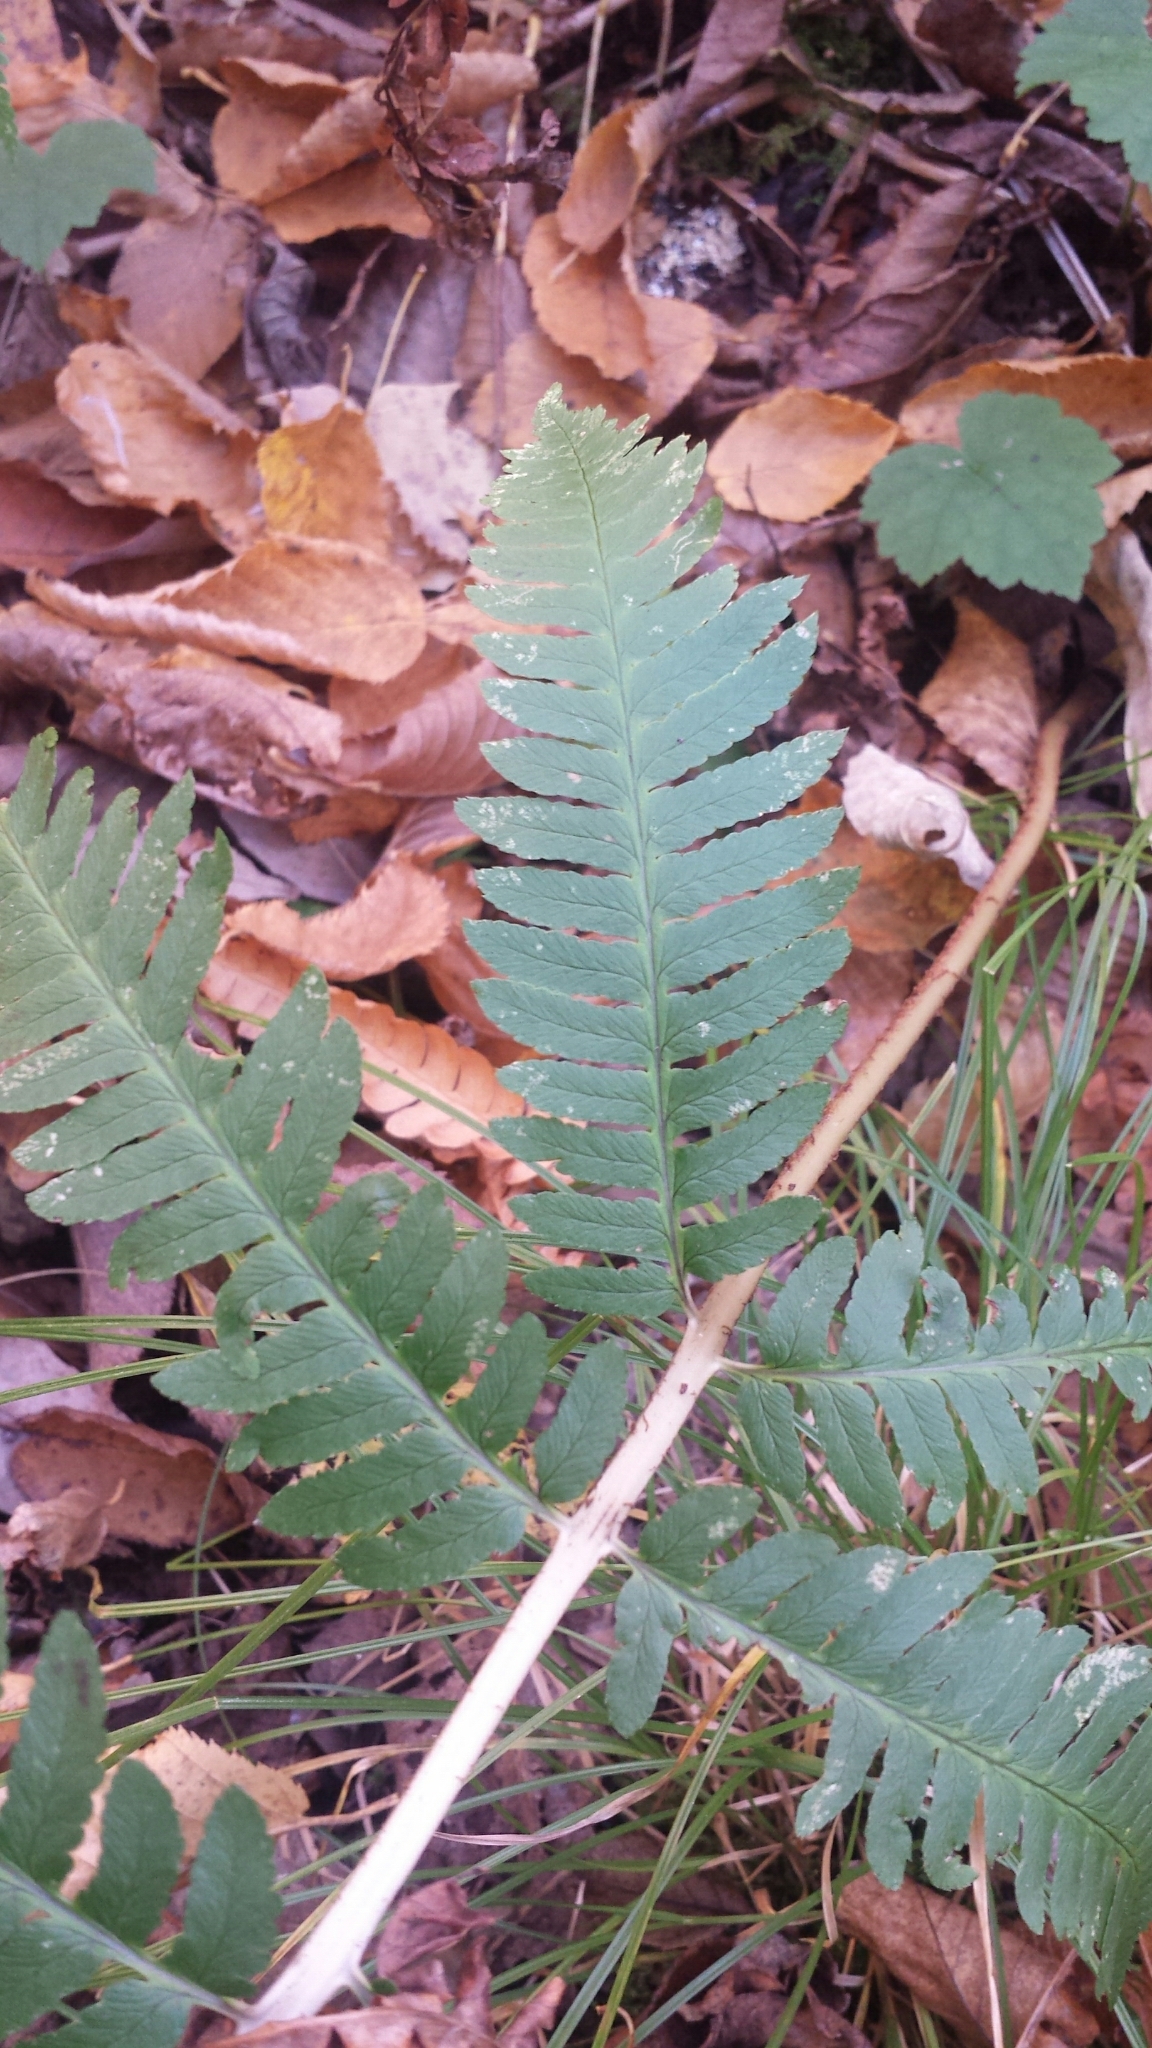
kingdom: Plantae
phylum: Tracheophyta
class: Polypodiopsida
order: Polypodiales
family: Dryopteridaceae
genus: Dryopteris
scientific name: Dryopteris goldieana
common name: Goldie's fern
